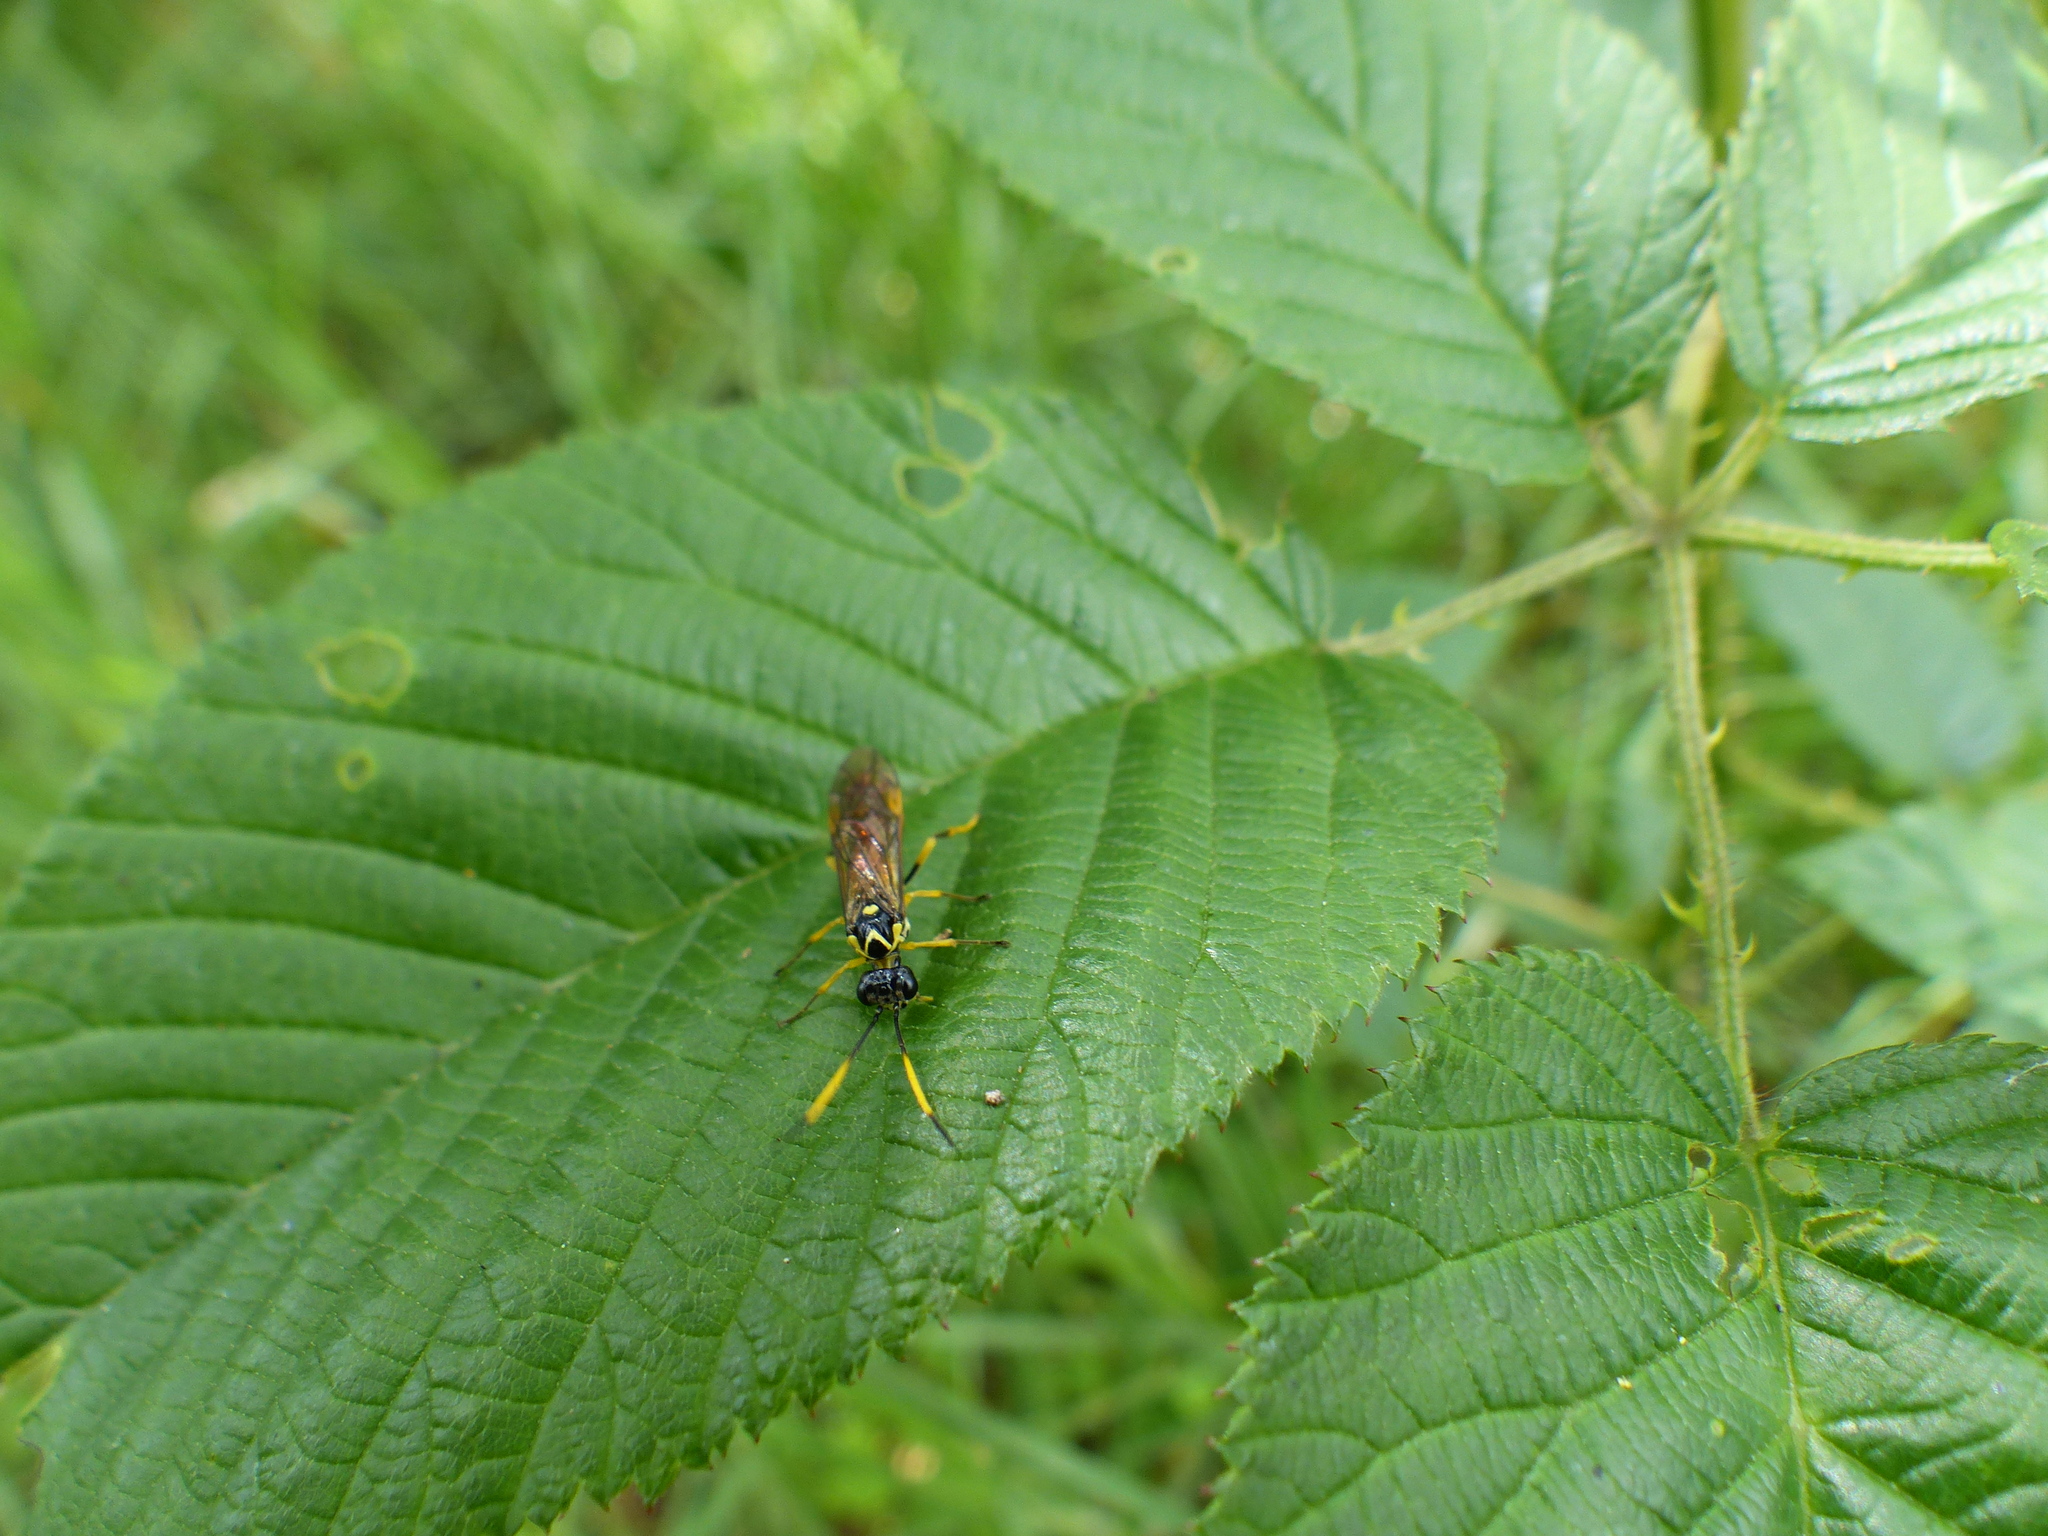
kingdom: Animalia
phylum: Arthropoda
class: Insecta
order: Hymenoptera
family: Tenthredinidae
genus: Stromboceridea
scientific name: Stromboceridea
